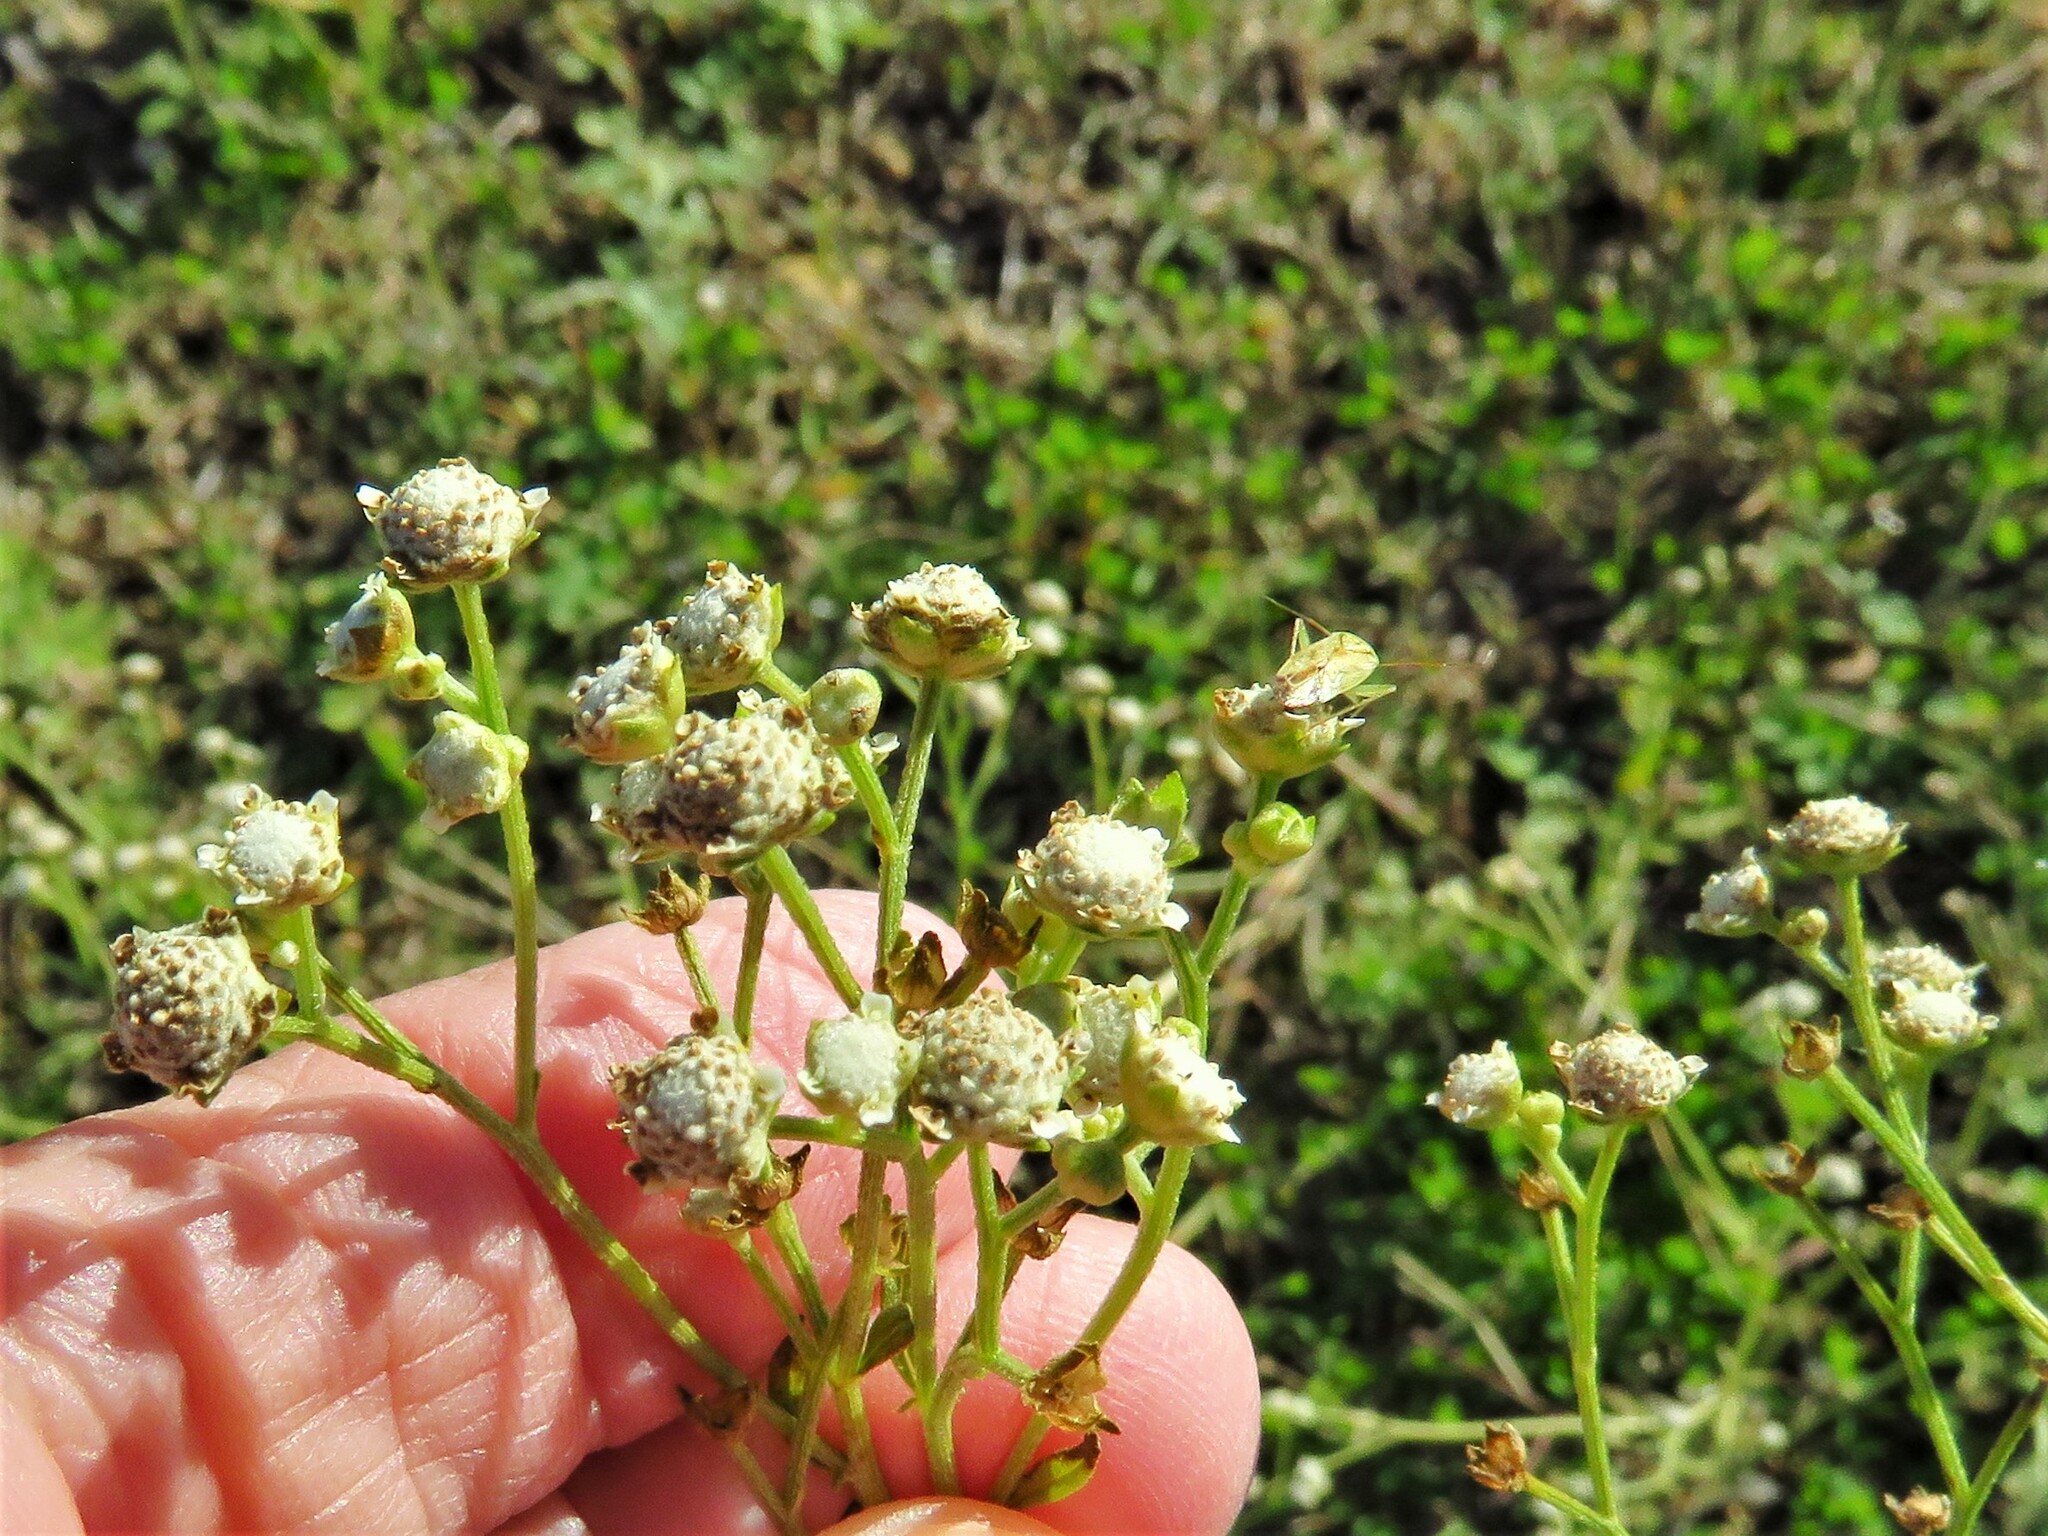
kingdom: Plantae
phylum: Tracheophyta
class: Magnoliopsida
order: Asterales
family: Asteraceae
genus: Parthenium
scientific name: Parthenium hysterophorus
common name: Santa maria feverfew
